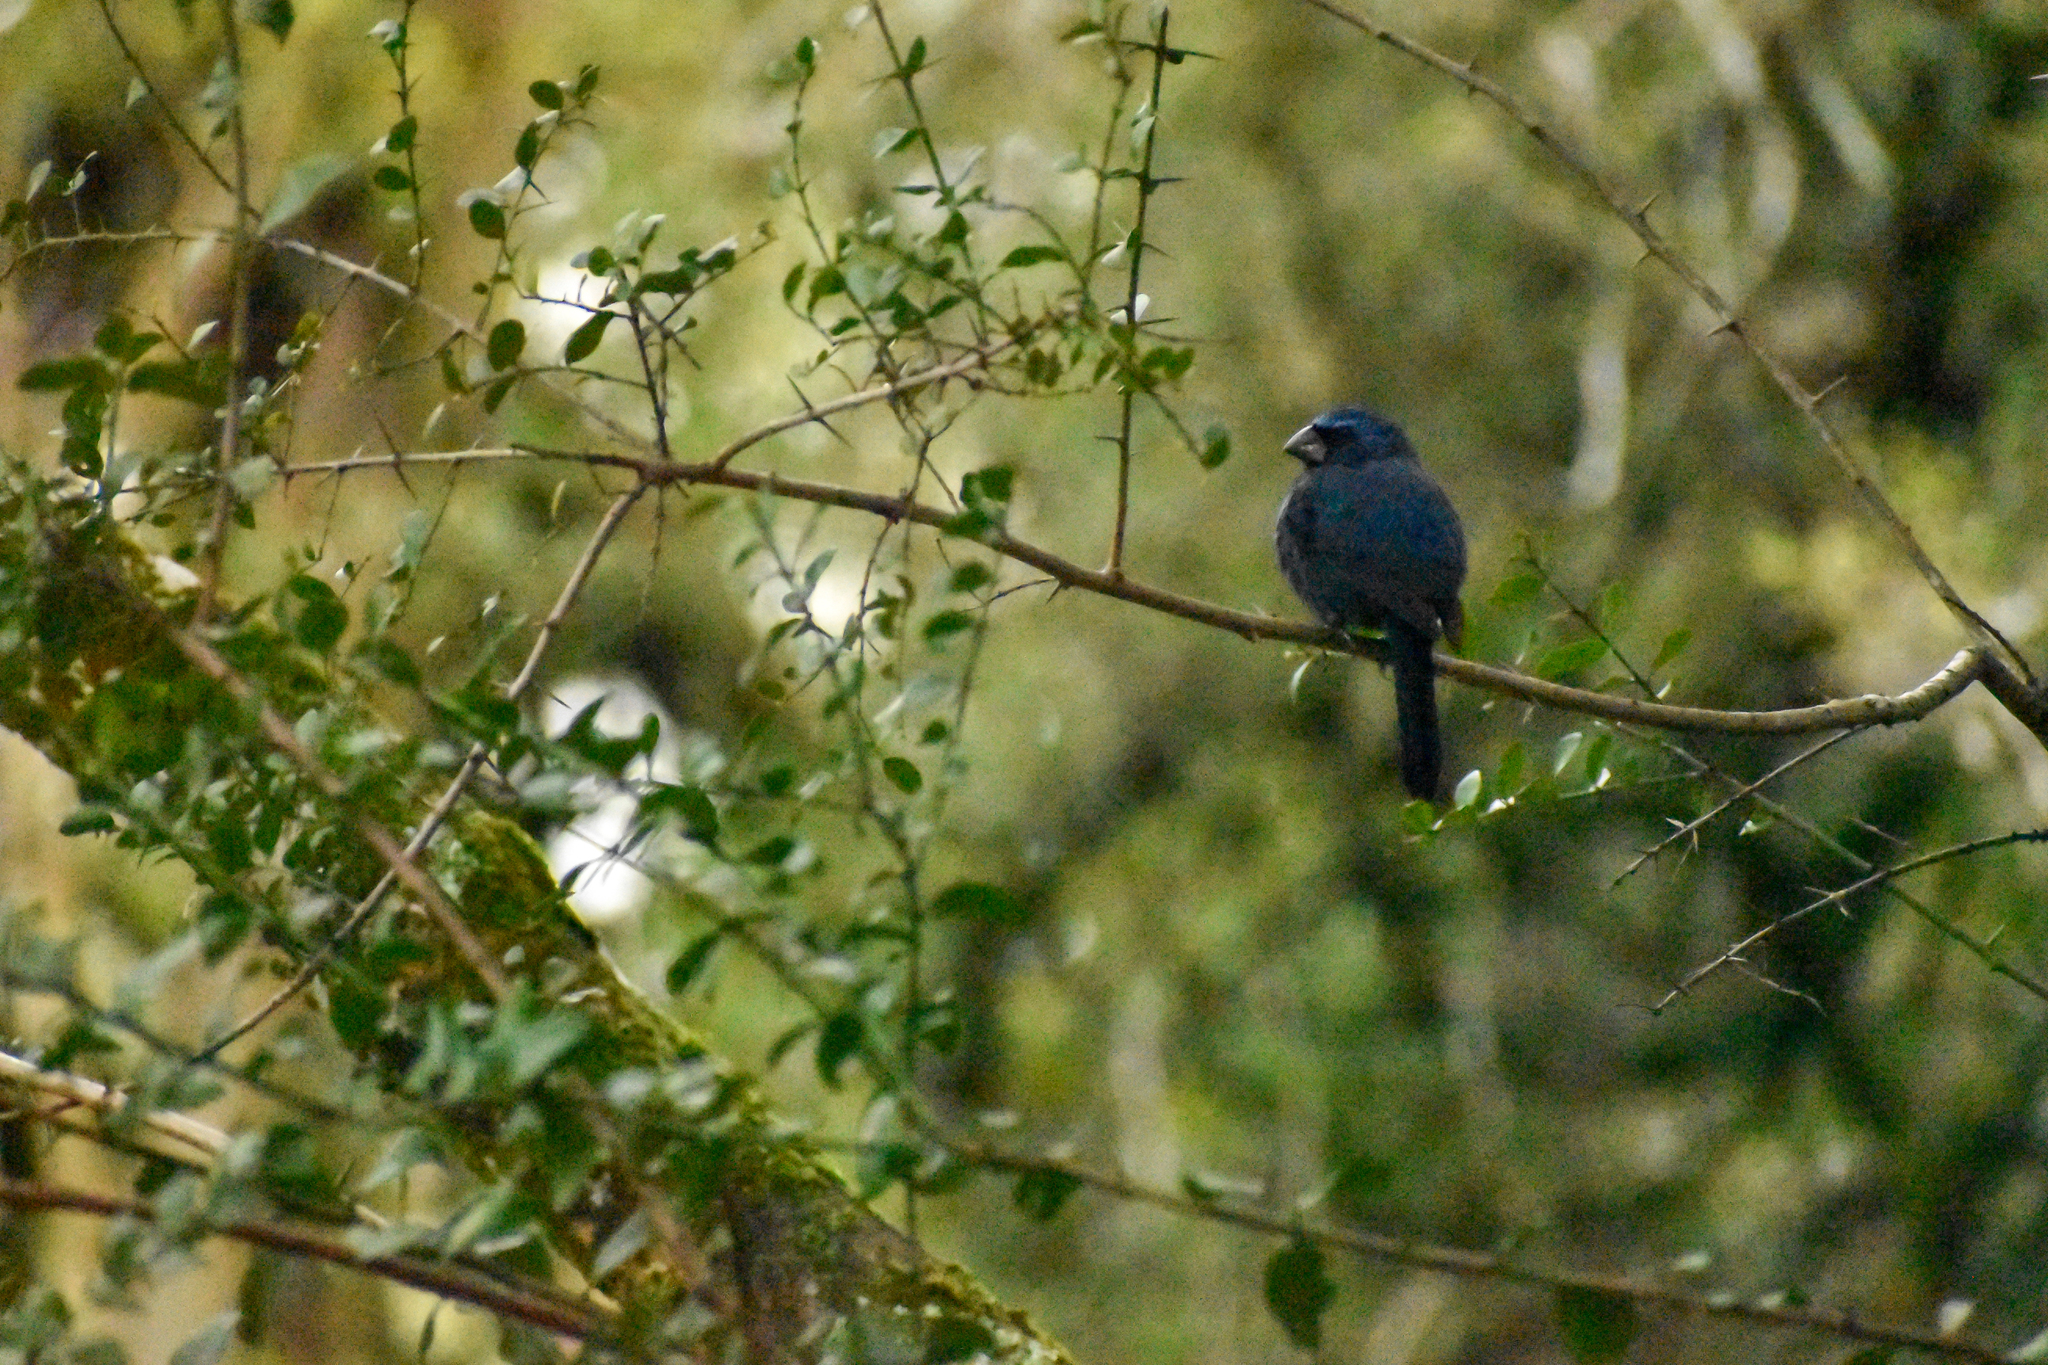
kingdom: Animalia
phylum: Chordata
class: Aves
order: Passeriformes
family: Cardinalidae
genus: Cyanoloxia
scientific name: Cyanoloxia brissonii
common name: Ultramarine grosbeak
